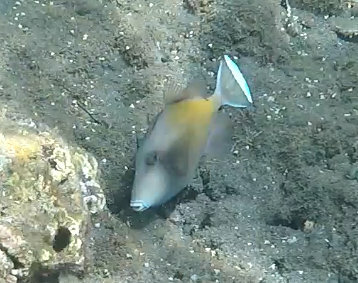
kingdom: Animalia
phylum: Chordata
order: Tetraodontiformes
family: Balistidae
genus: Sufflamen
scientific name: Sufflamen chrysopterum
